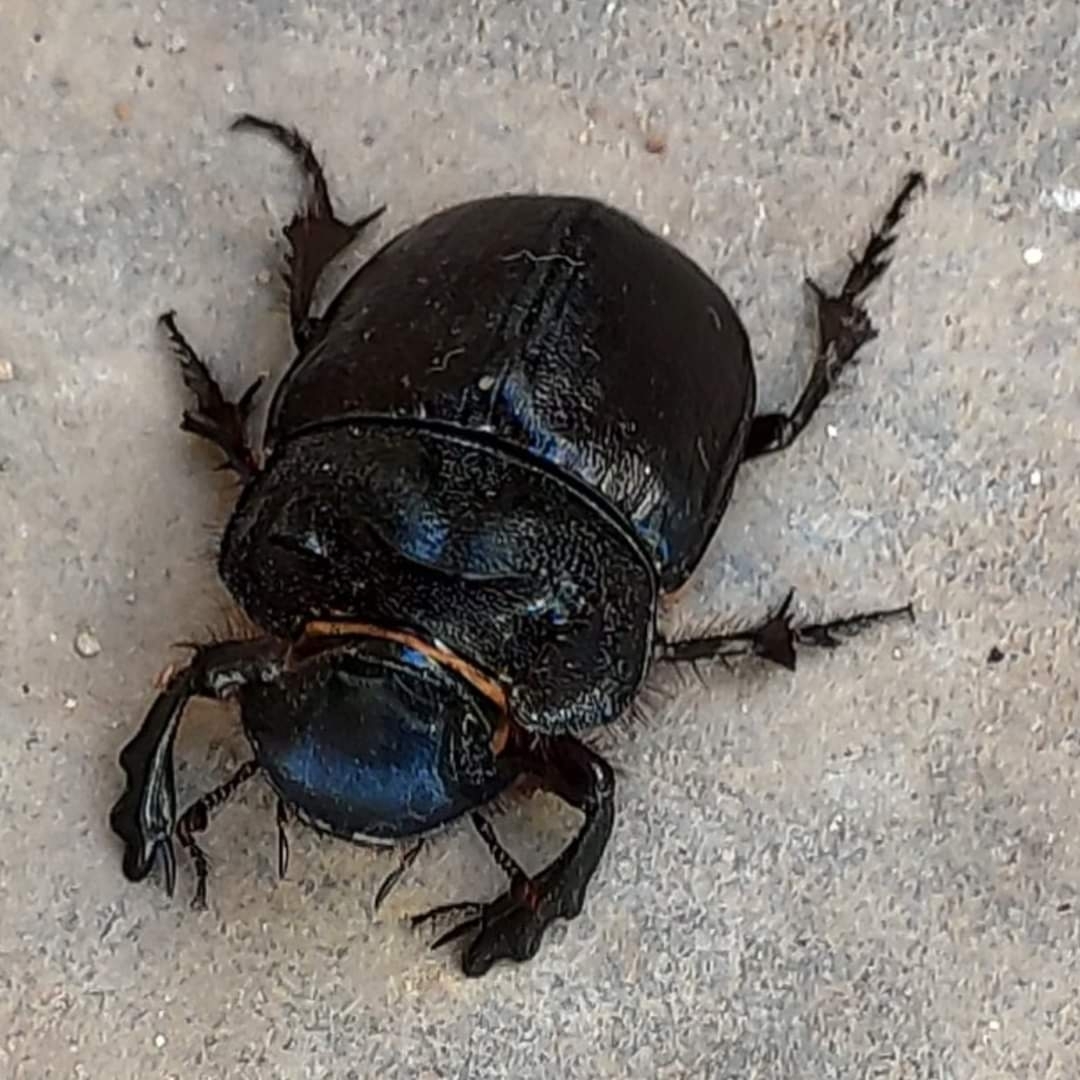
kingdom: Animalia
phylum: Arthropoda
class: Insecta
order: Coleoptera
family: Scarabaeidae
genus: Heliocopris
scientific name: Heliocopris midas
